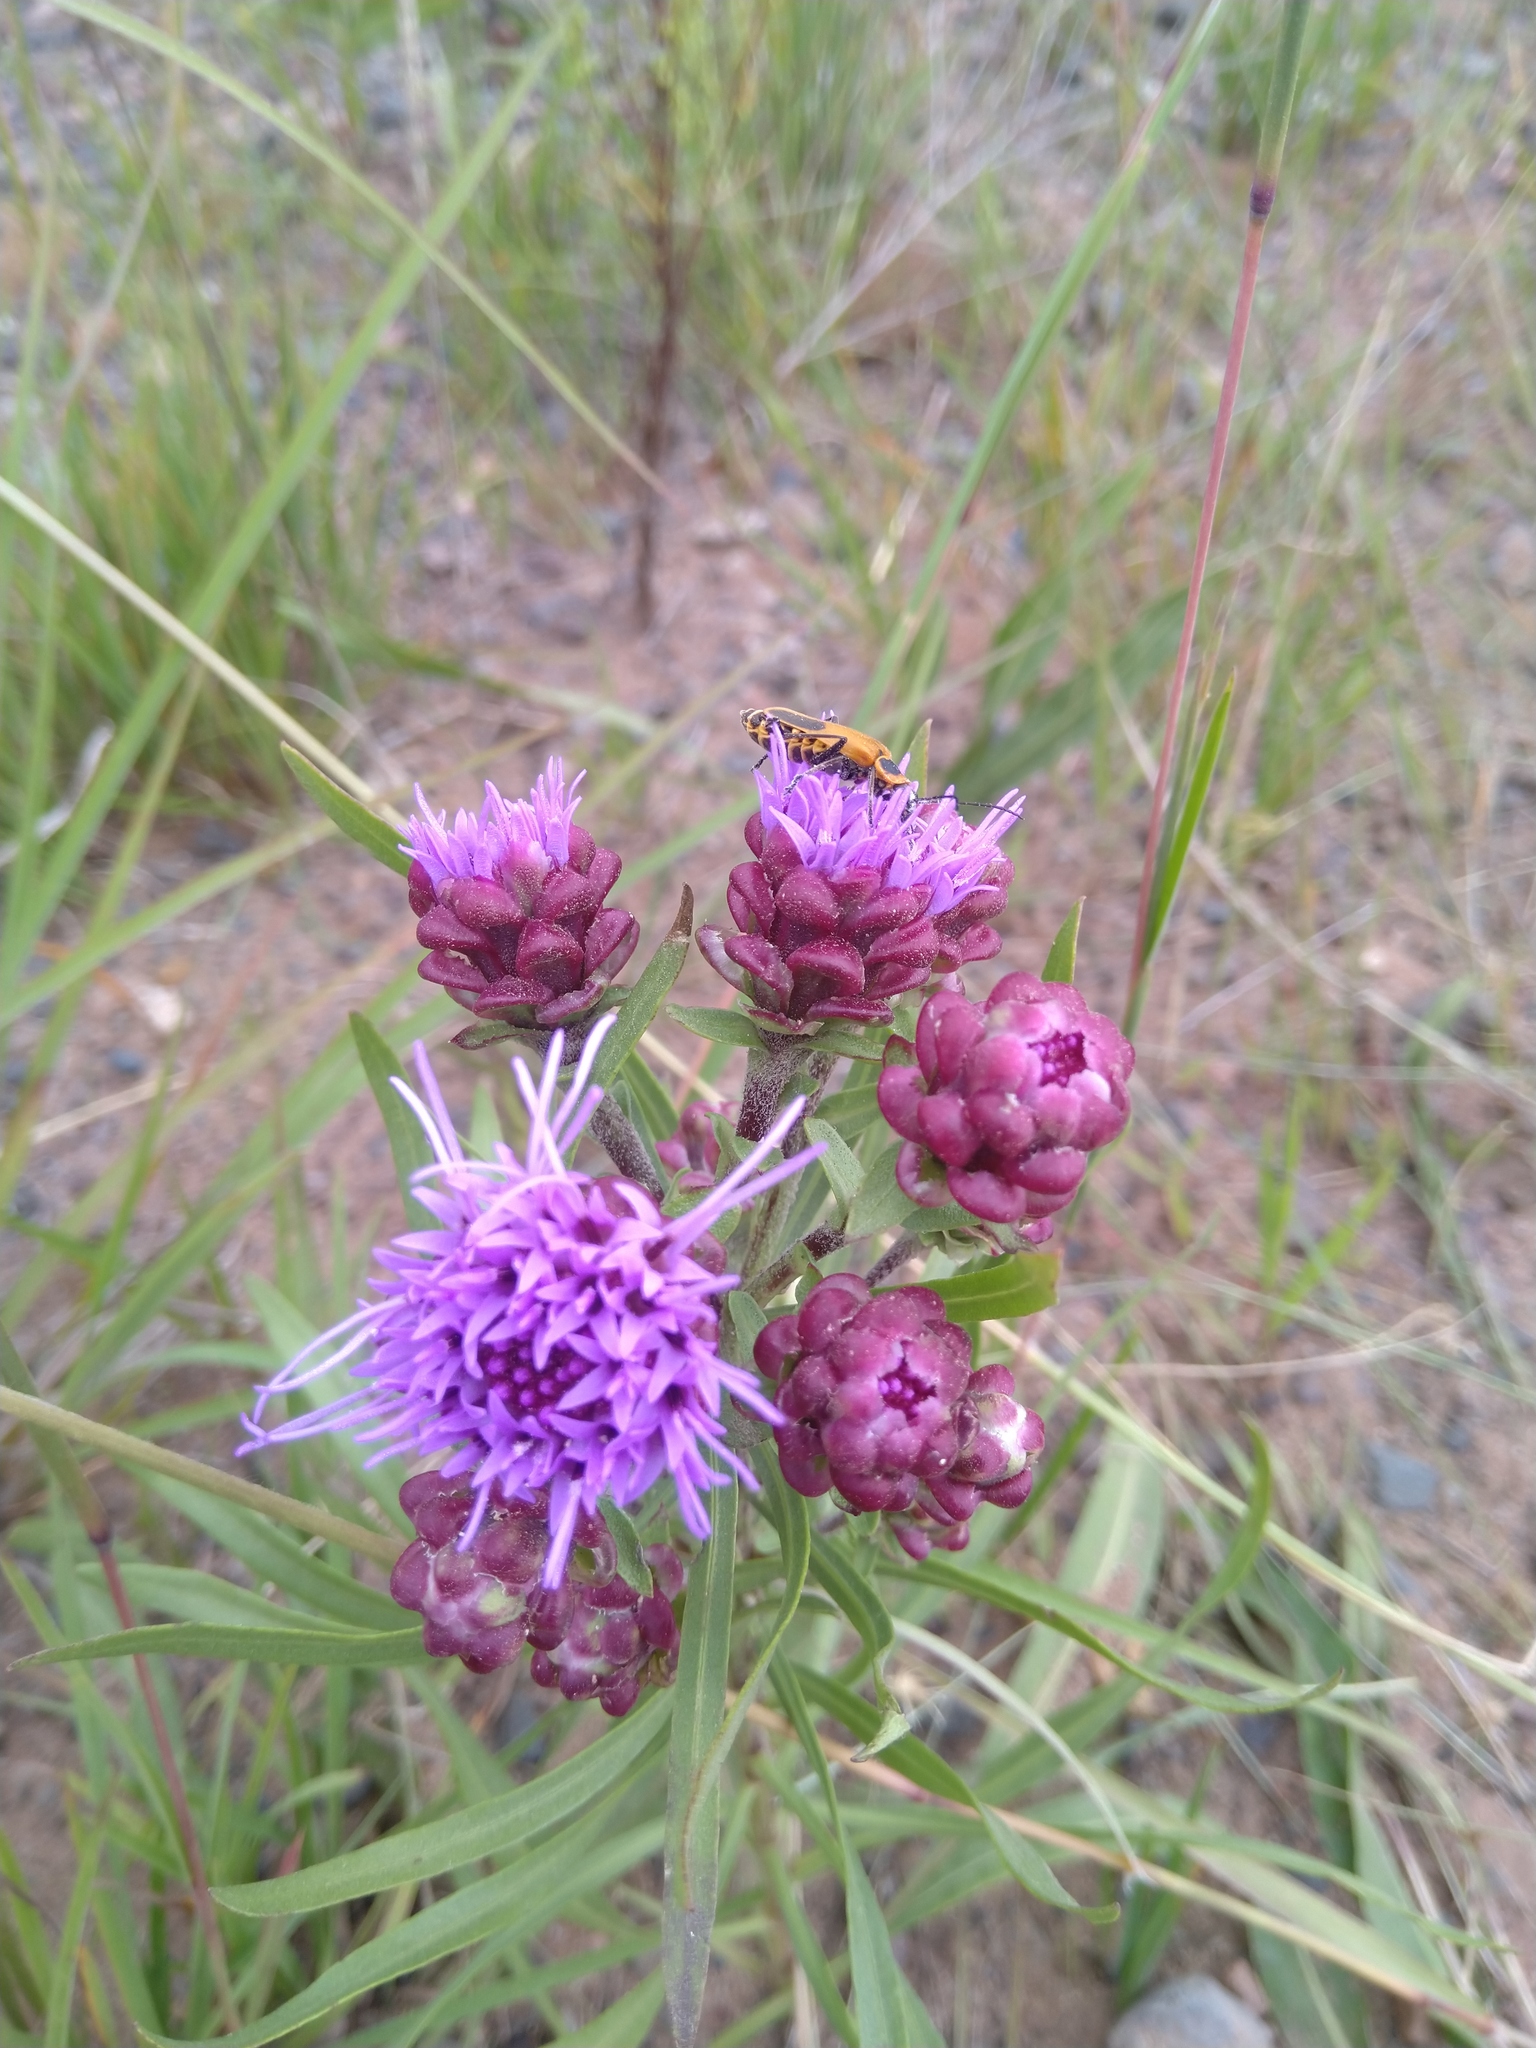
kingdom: Plantae
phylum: Tracheophyta
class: Magnoliopsida
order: Asterales
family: Asteraceae
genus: Liatris
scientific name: Liatris aspera
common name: Lacerate blazing-star
